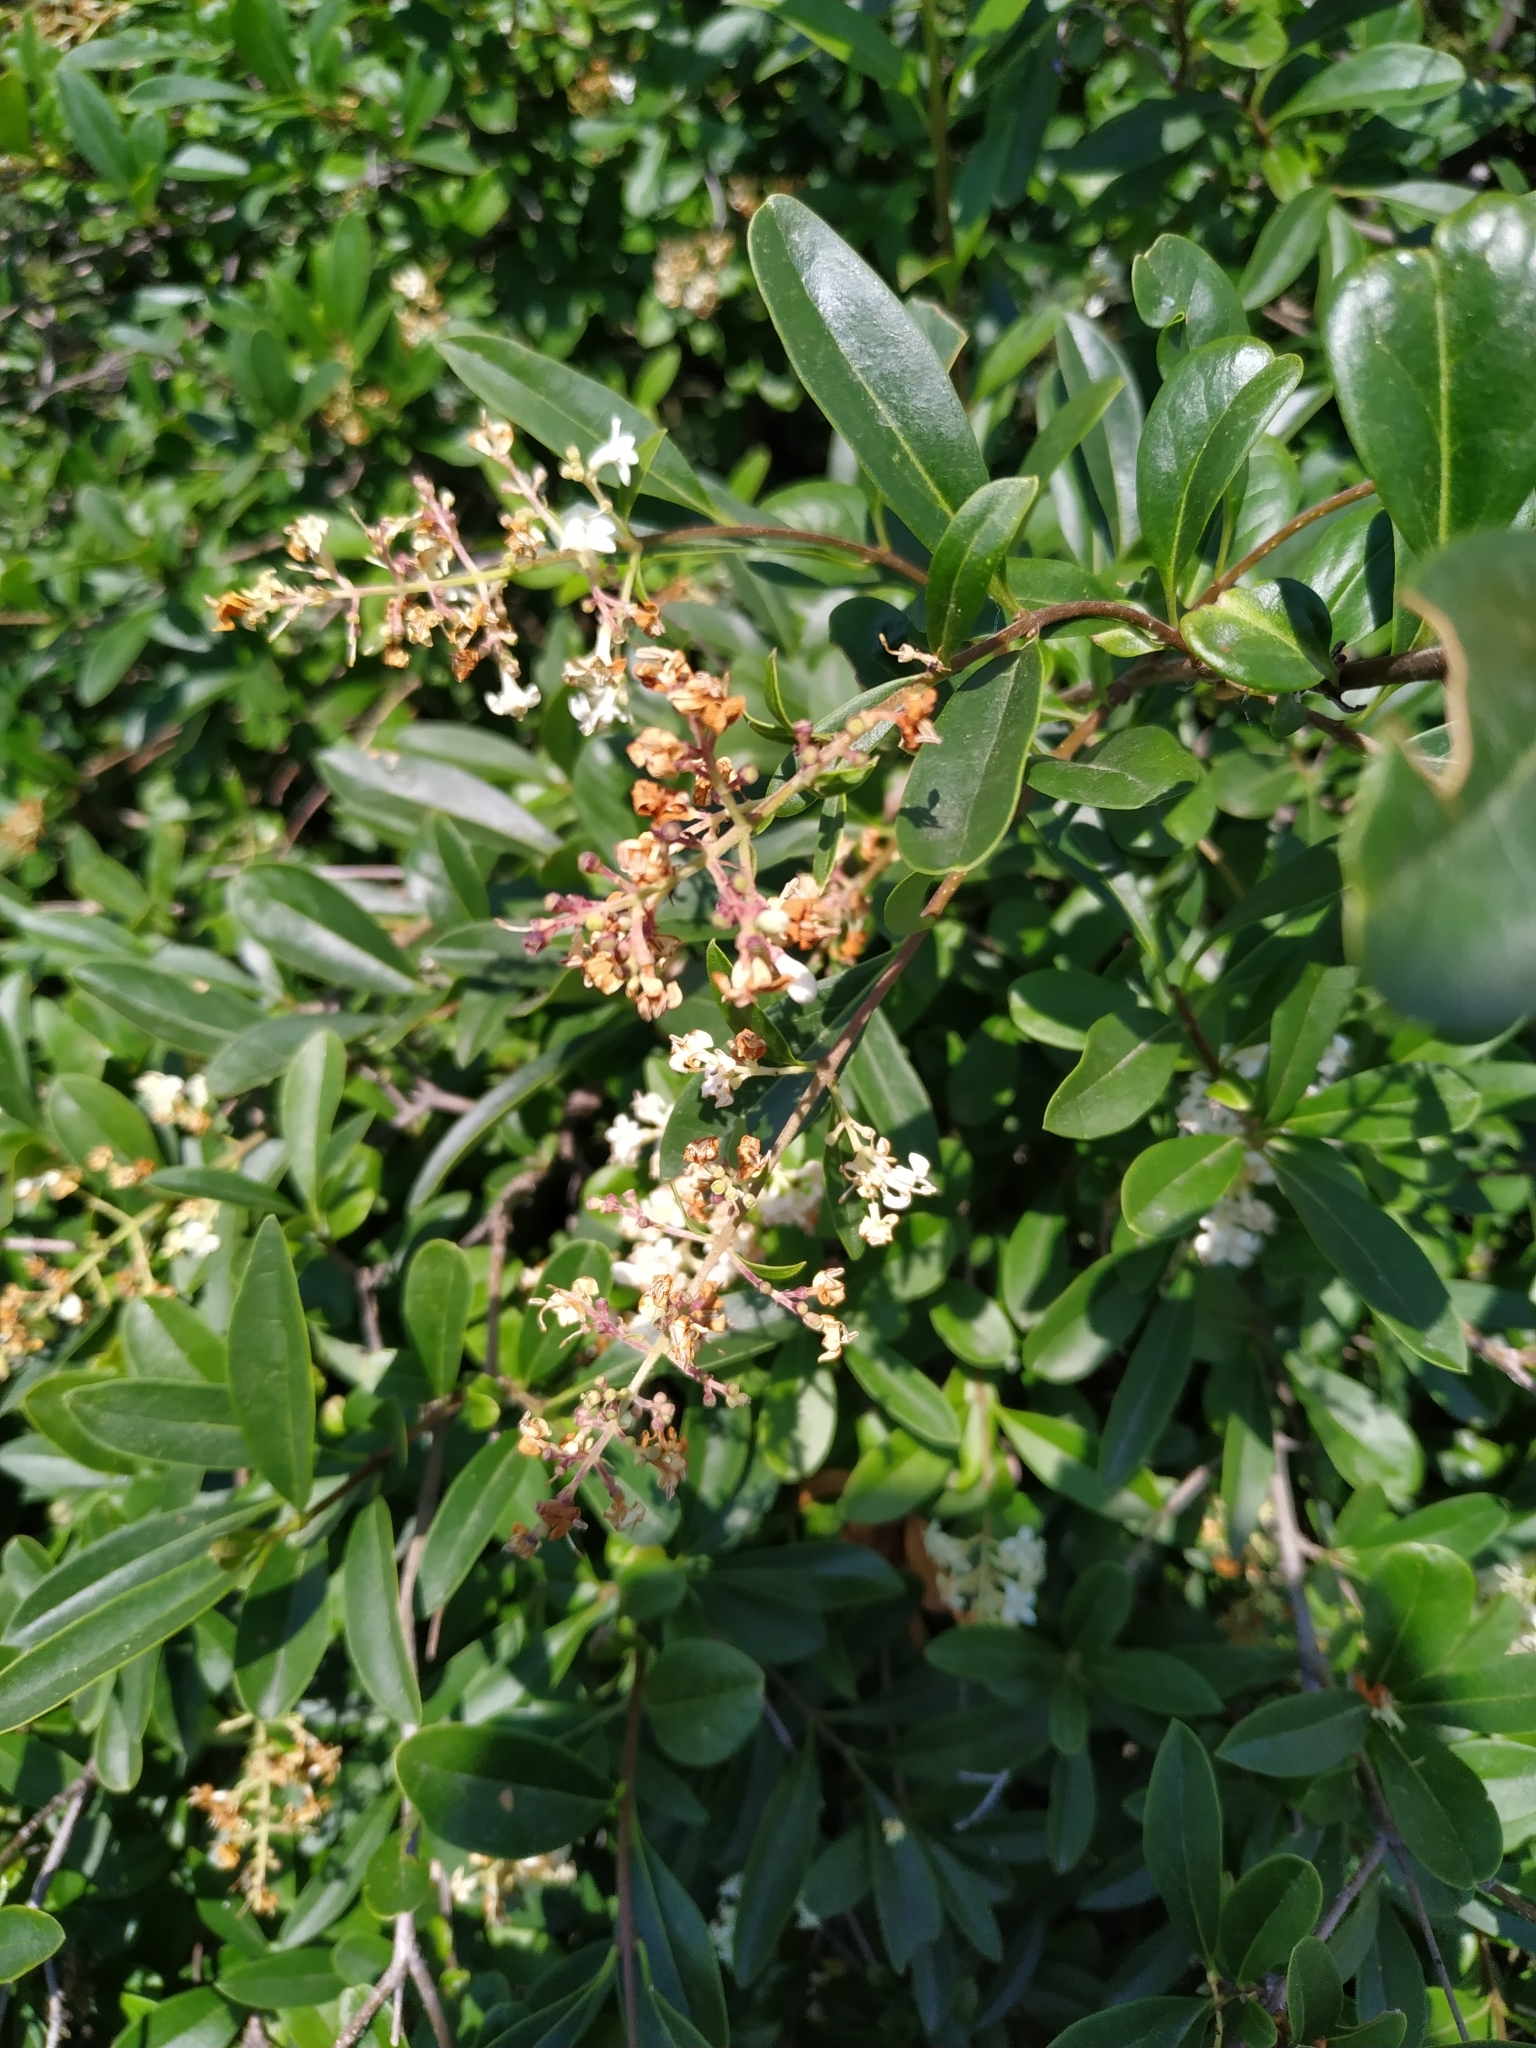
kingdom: Plantae
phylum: Tracheophyta
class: Magnoliopsida
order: Lamiales
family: Oleaceae
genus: Ligustrum
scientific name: Ligustrum vulgare
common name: Wild privet
